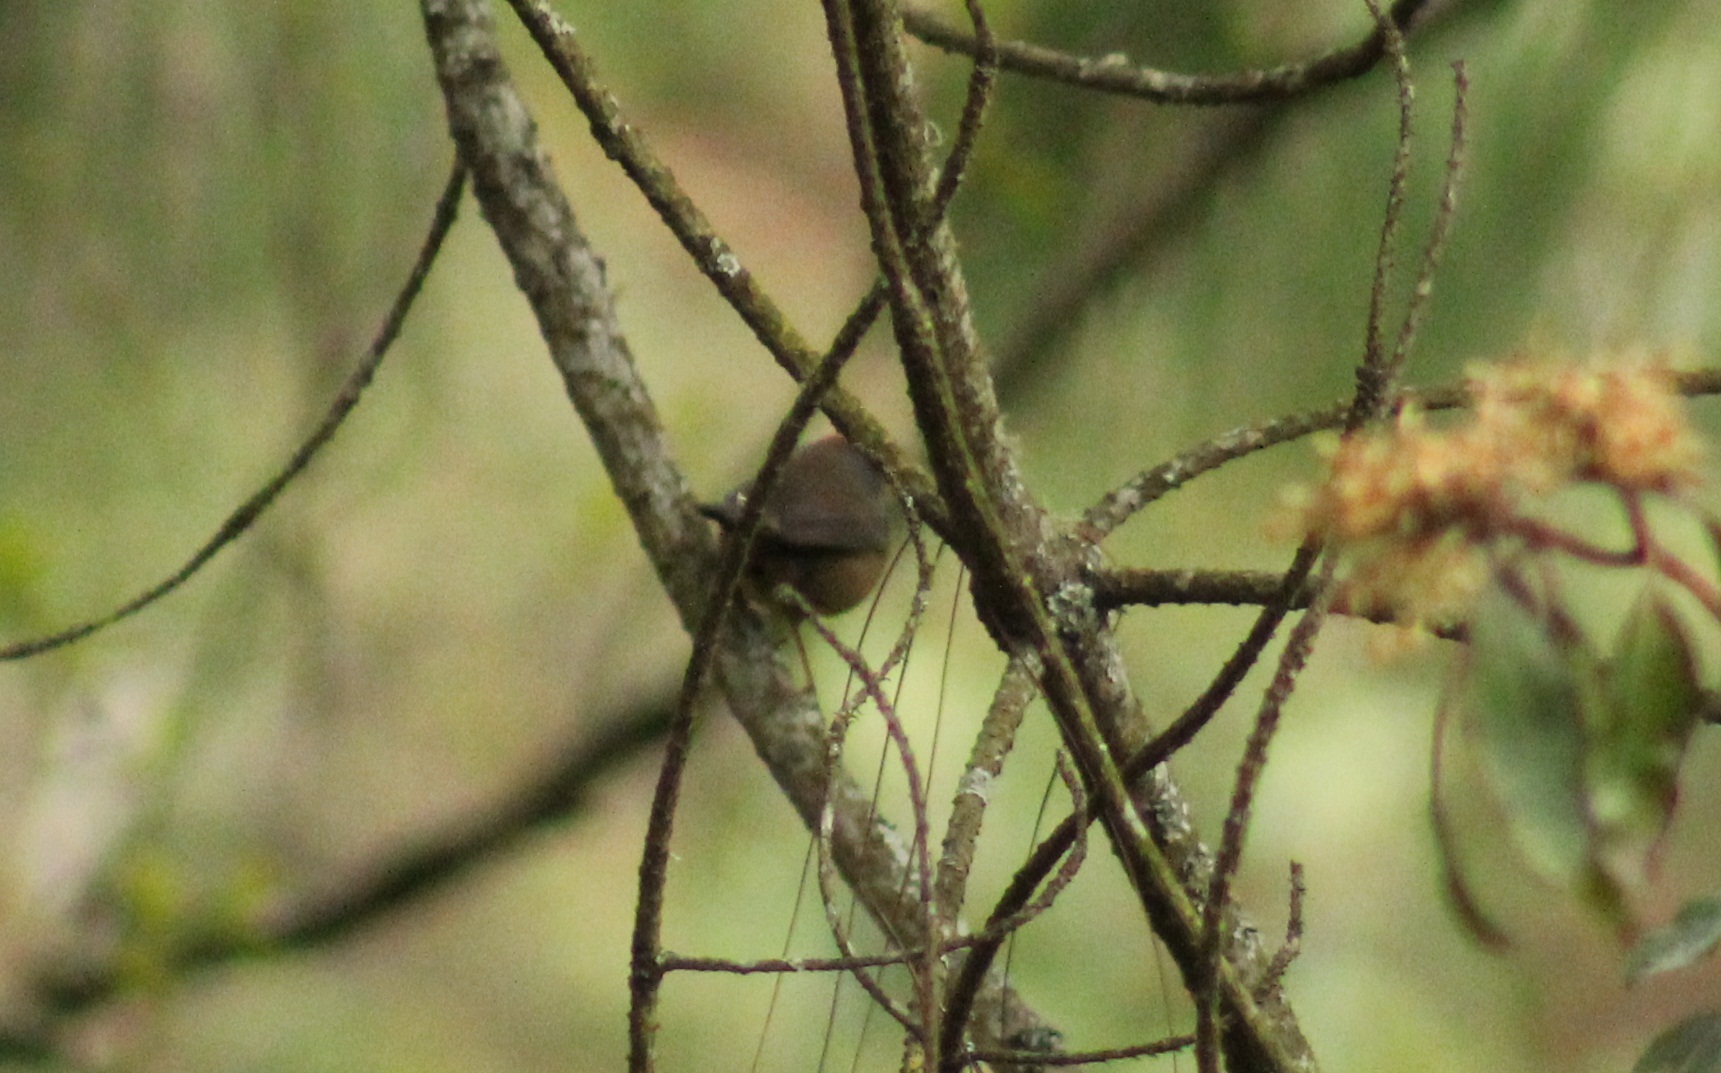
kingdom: Animalia
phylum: Chordata
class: Aves
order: Passeriformes
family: Passerellidae
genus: Atlapetes
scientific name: Atlapetes pileatus
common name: Rufous-capped brush-finch
